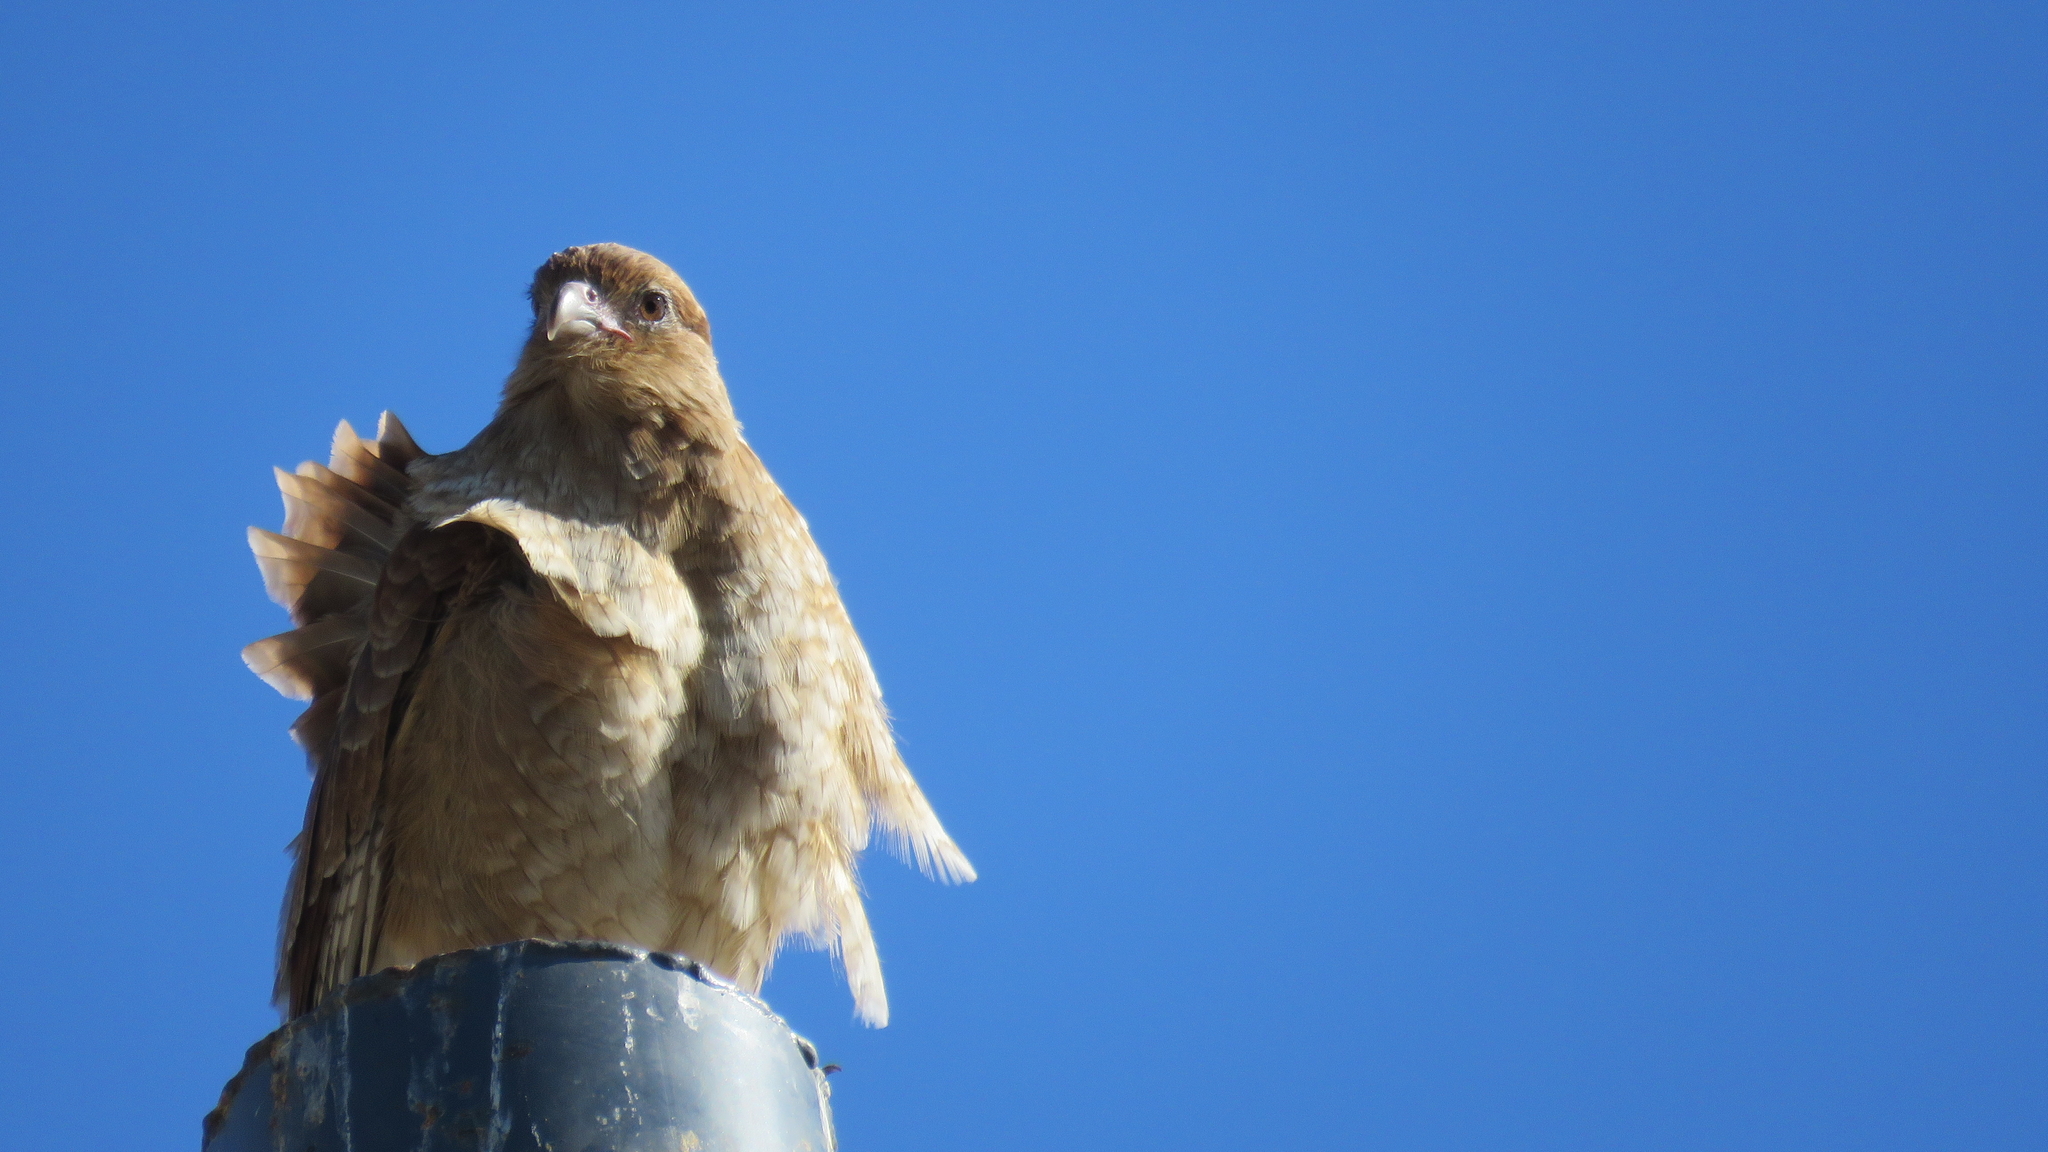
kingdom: Animalia
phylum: Chordata
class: Aves
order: Falconiformes
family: Falconidae
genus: Daptrius
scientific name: Daptrius
